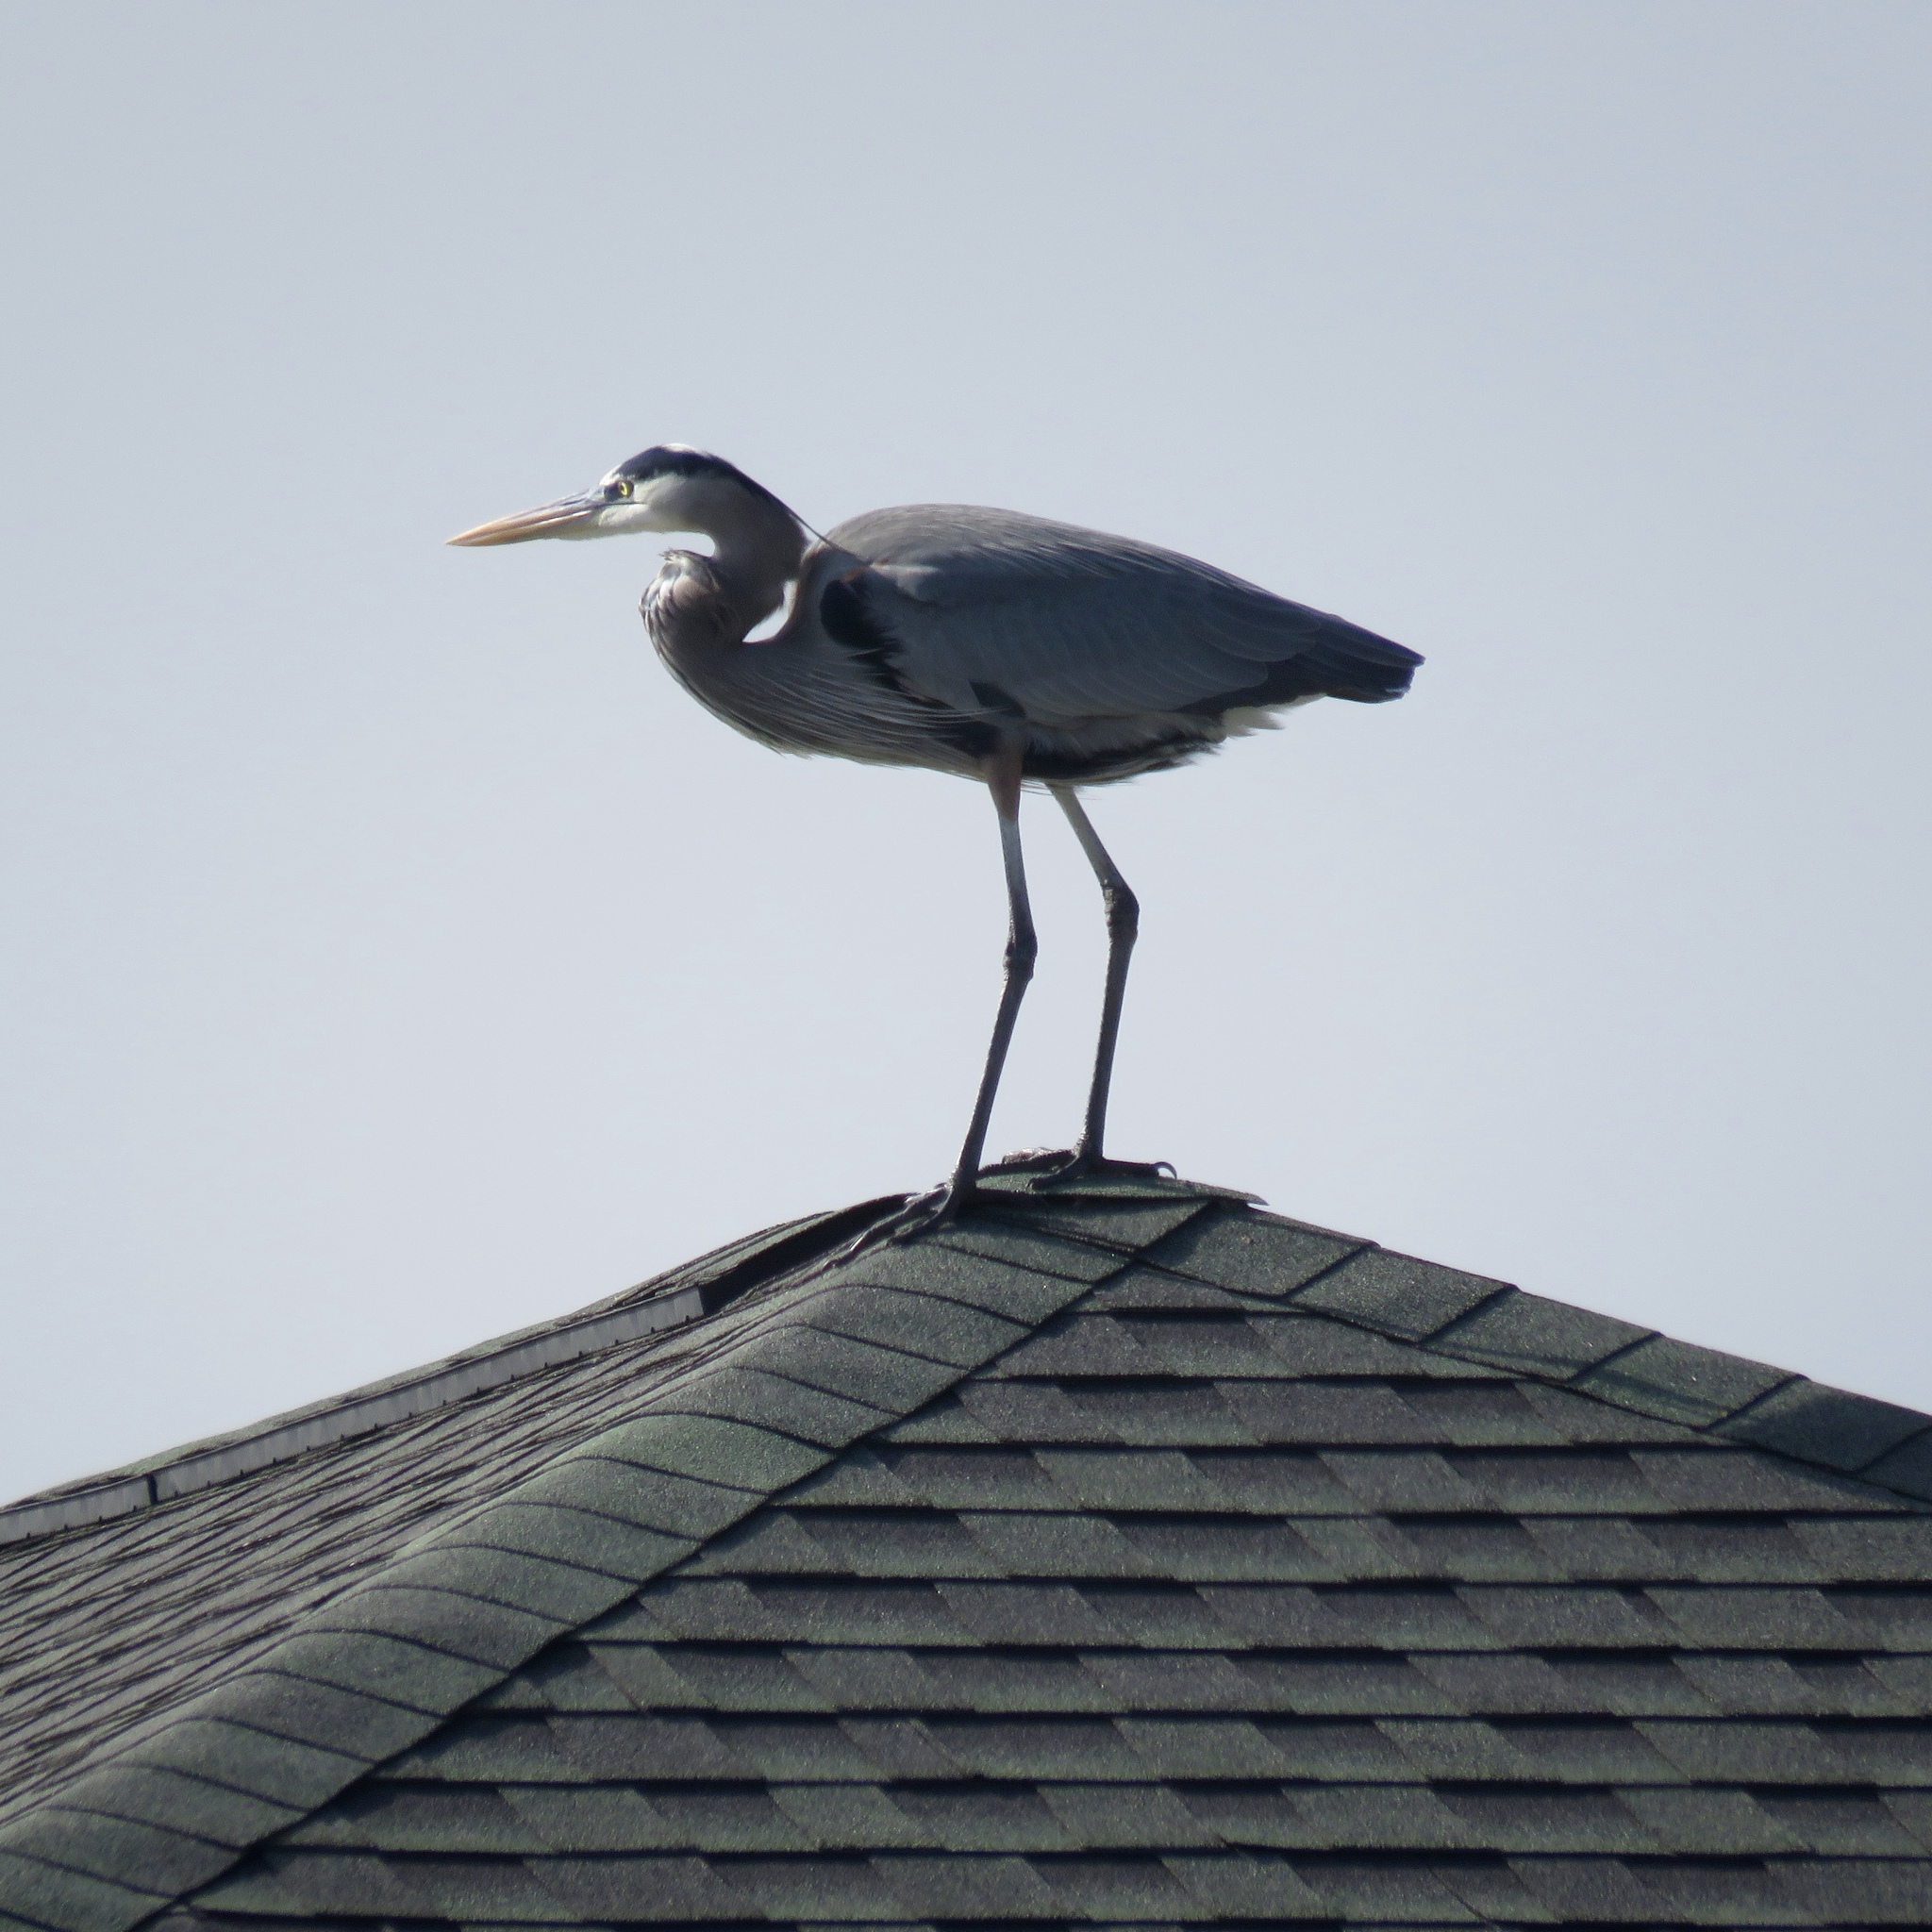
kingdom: Animalia
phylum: Chordata
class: Aves
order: Pelecaniformes
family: Ardeidae
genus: Ardea
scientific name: Ardea herodias
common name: Great blue heron
